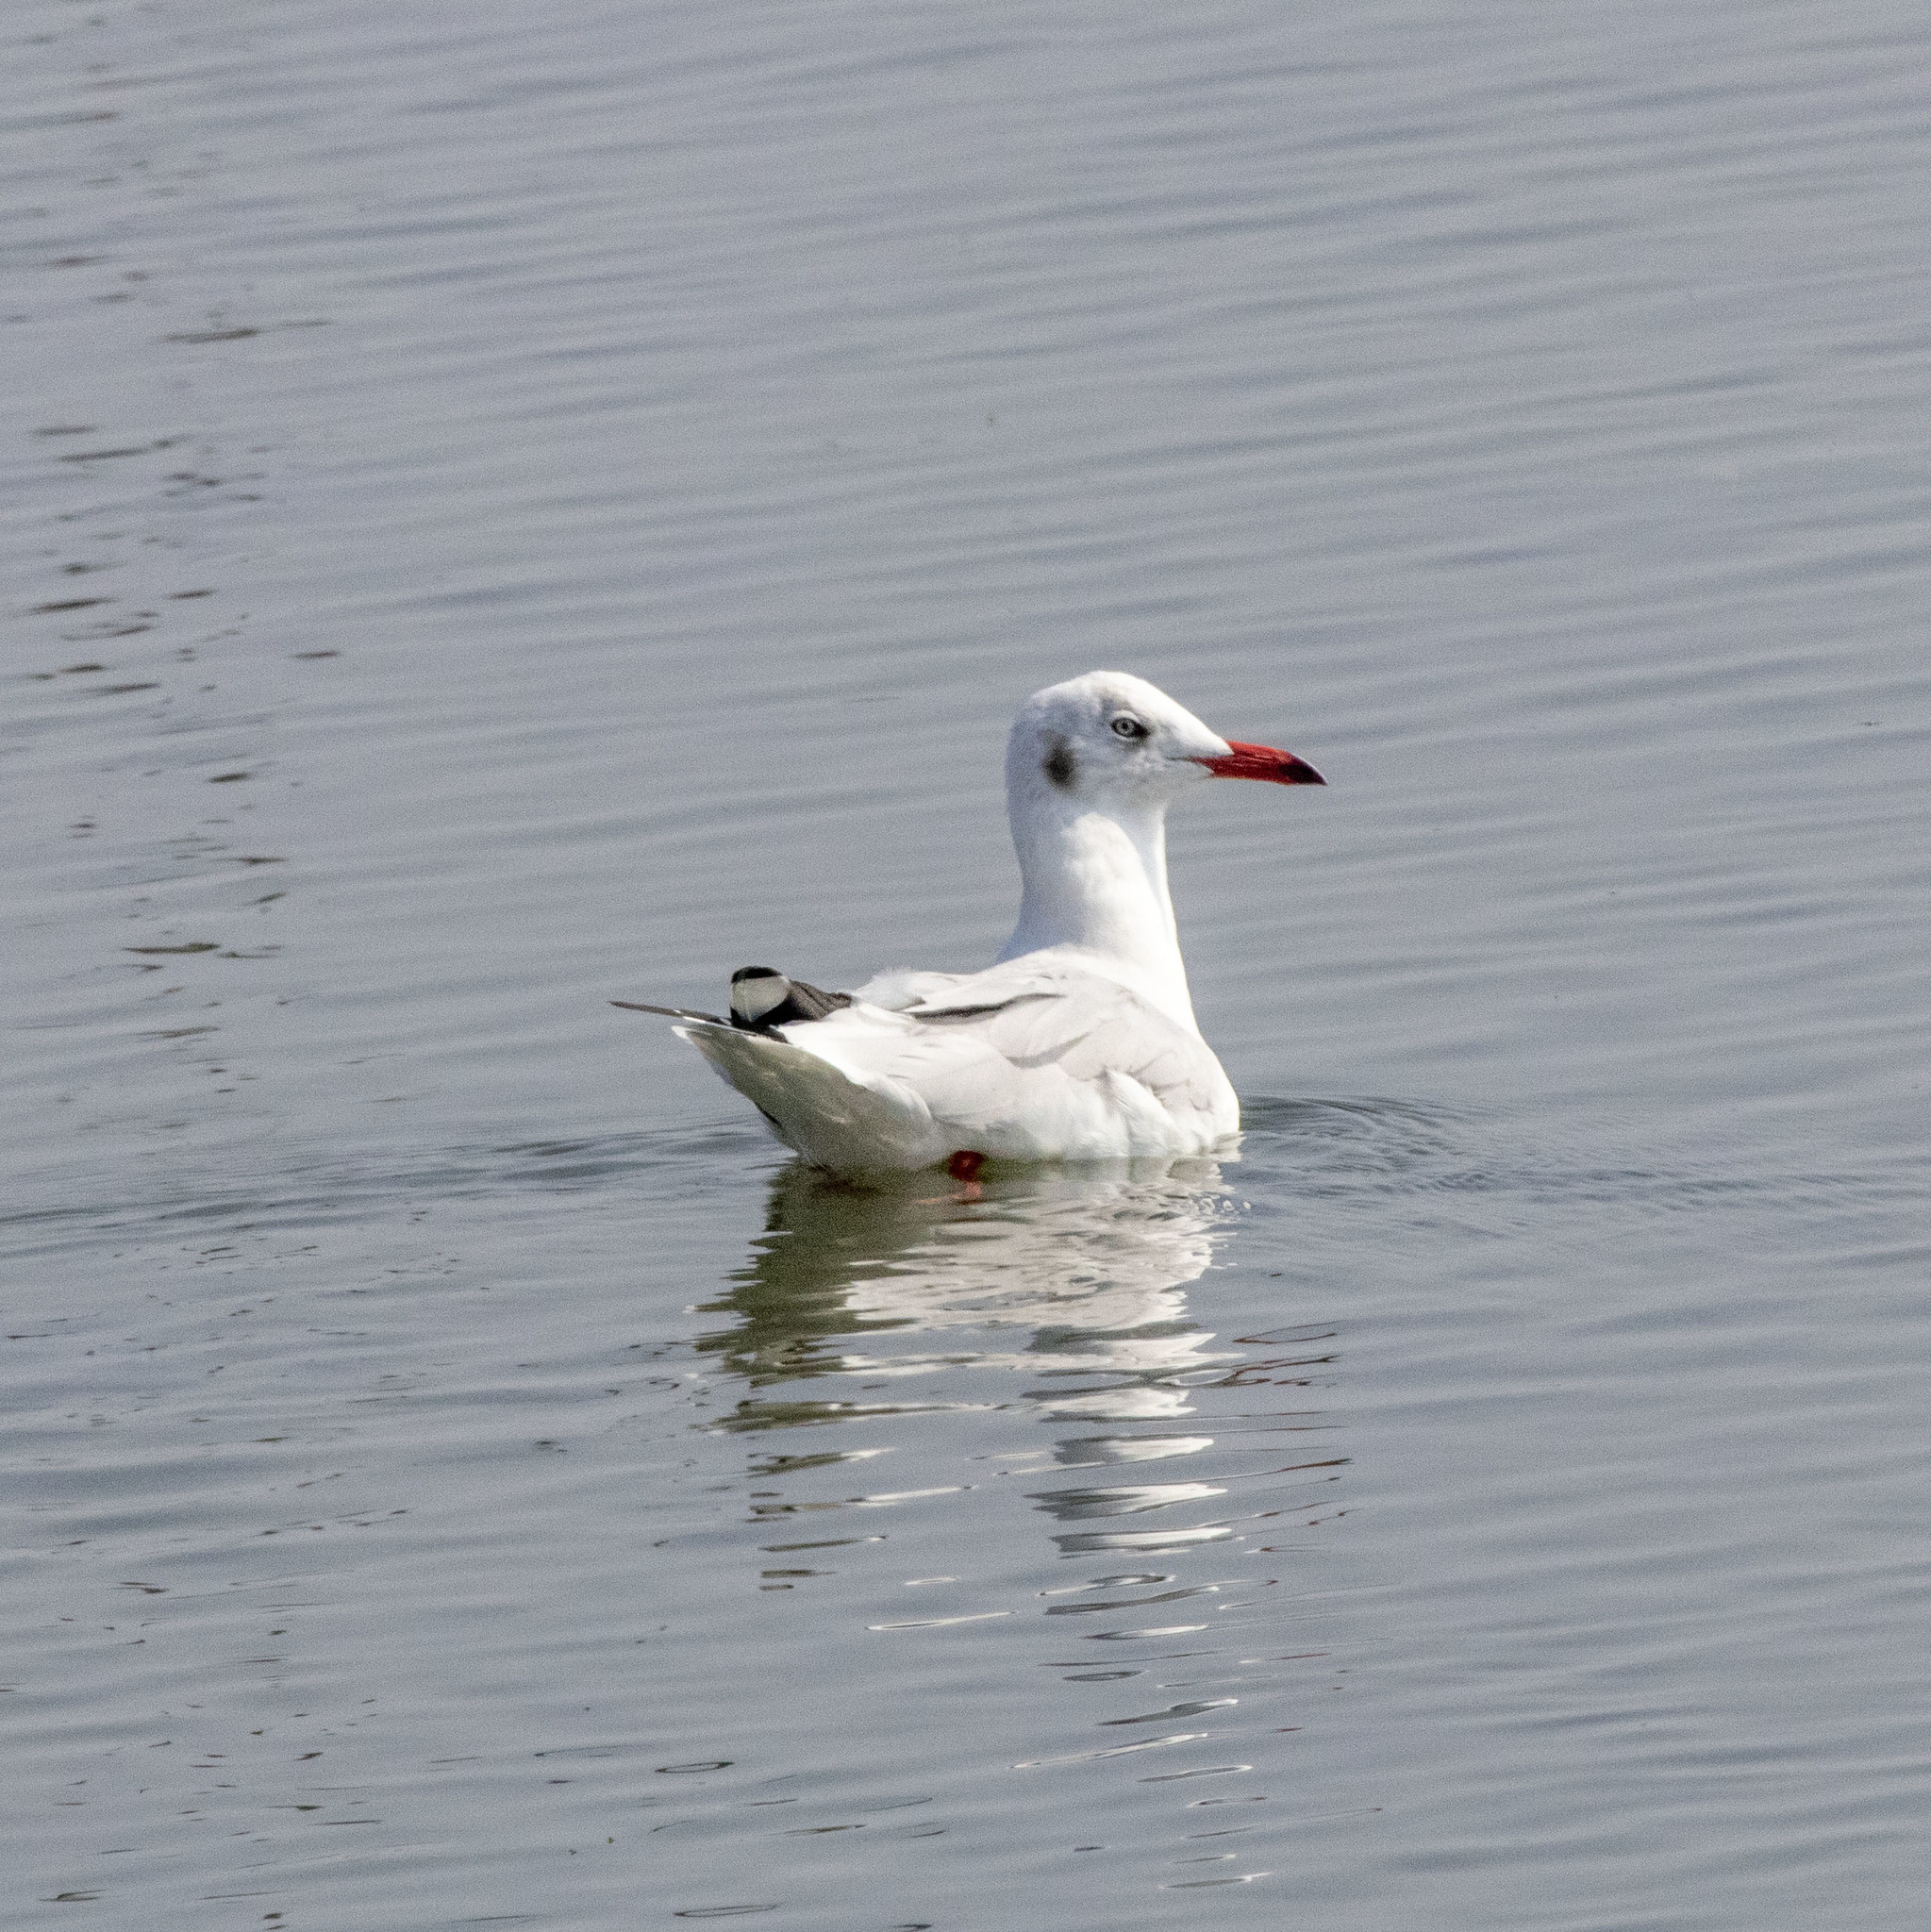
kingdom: Animalia
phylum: Chordata
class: Aves
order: Charadriiformes
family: Laridae
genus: Chroicocephalus
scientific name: Chroicocephalus brunnicephalus
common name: Brown-headed gull
